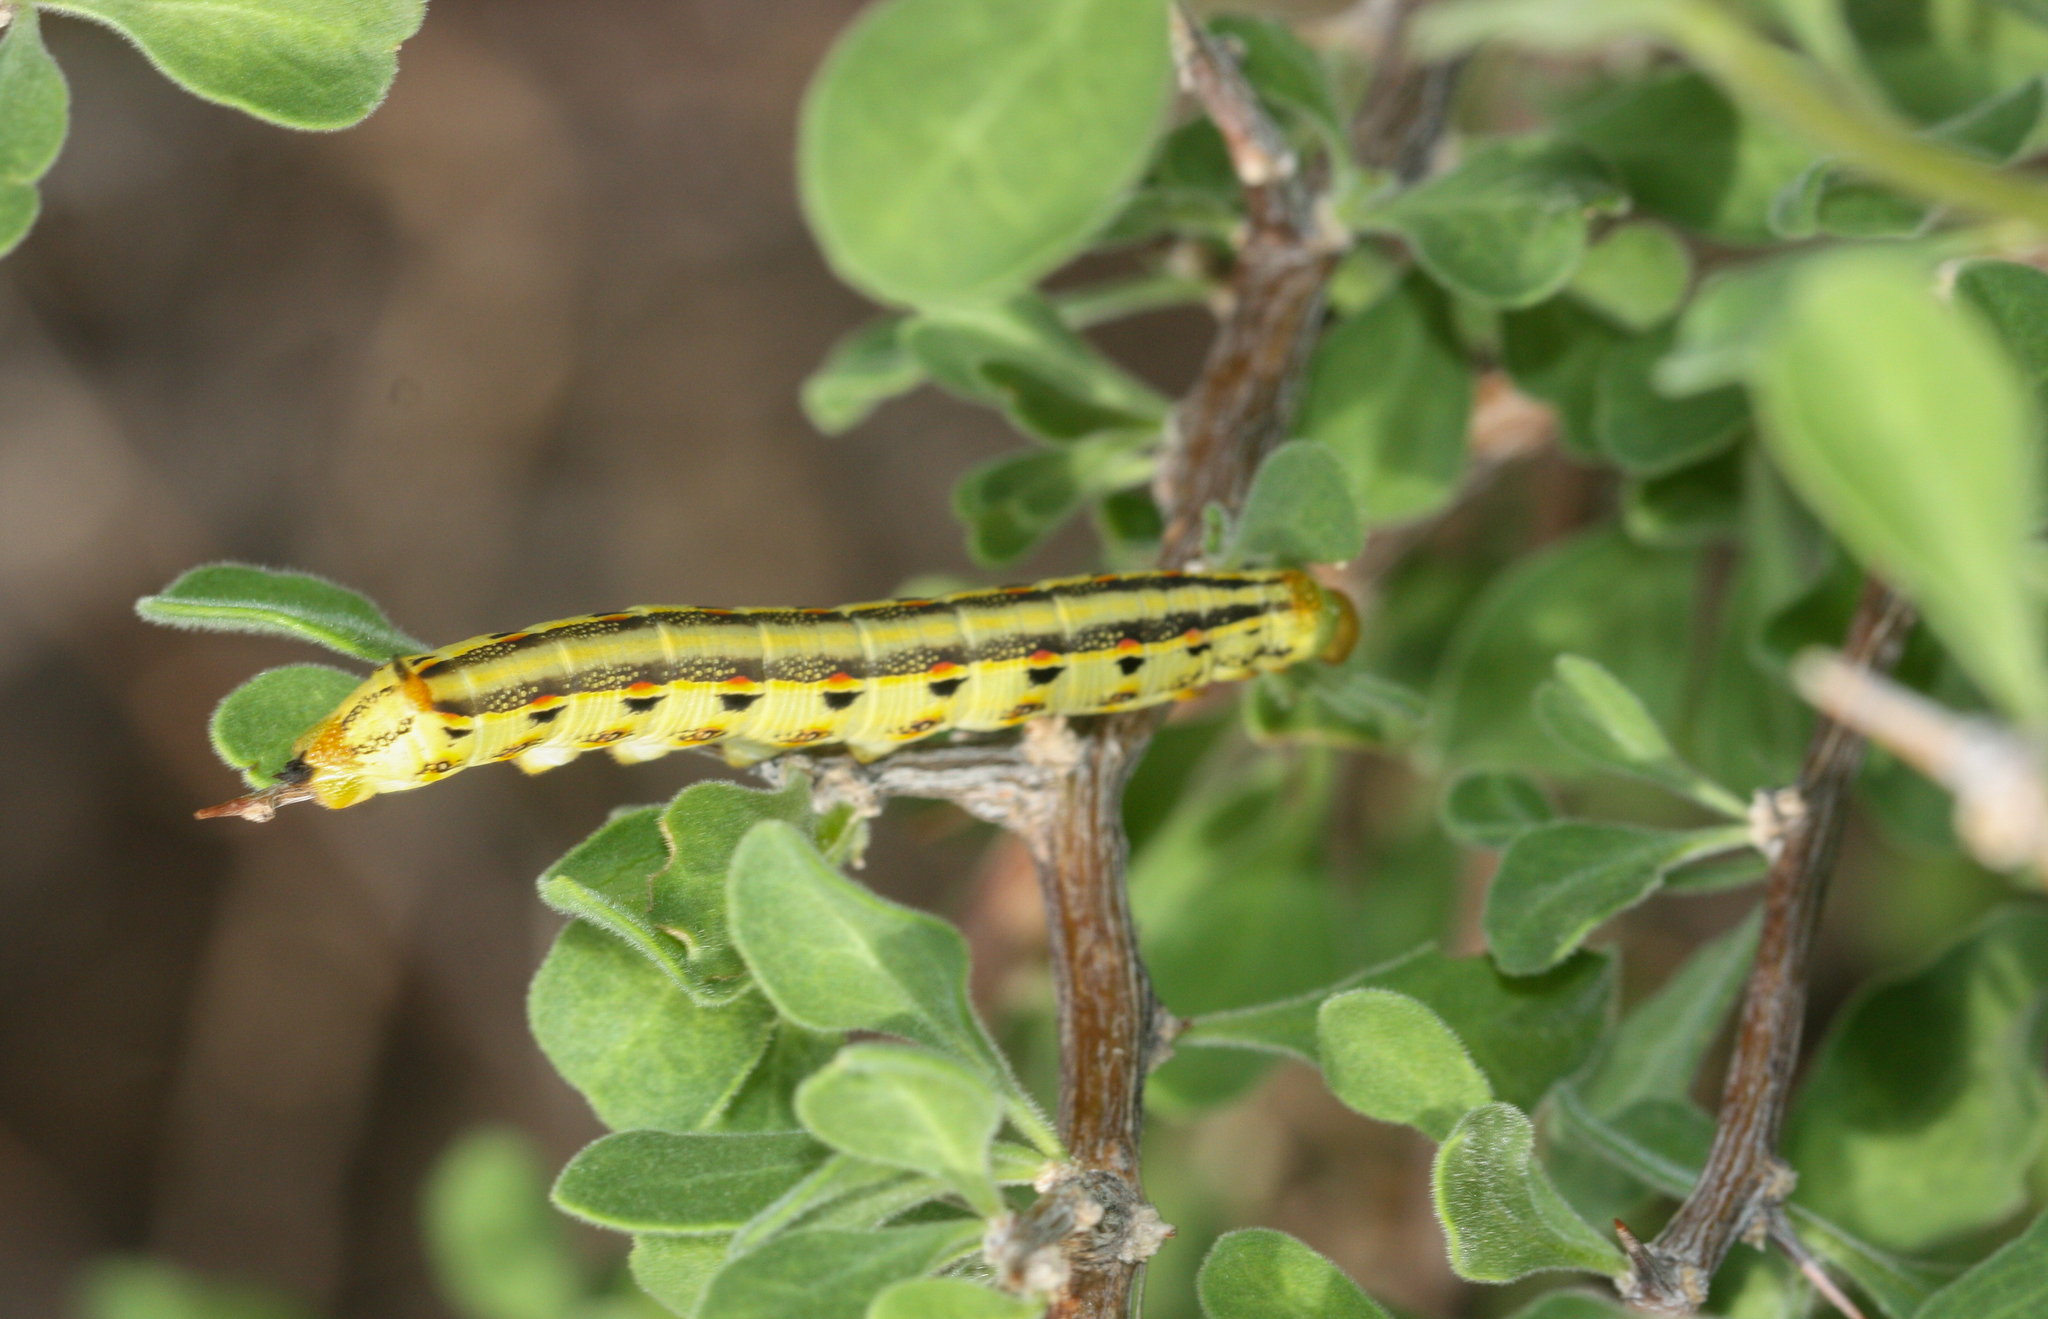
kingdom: Animalia
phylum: Arthropoda
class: Insecta
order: Lepidoptera
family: Sphingidae
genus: Hyles
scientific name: Hyles lineata
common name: White-lined sphinx
